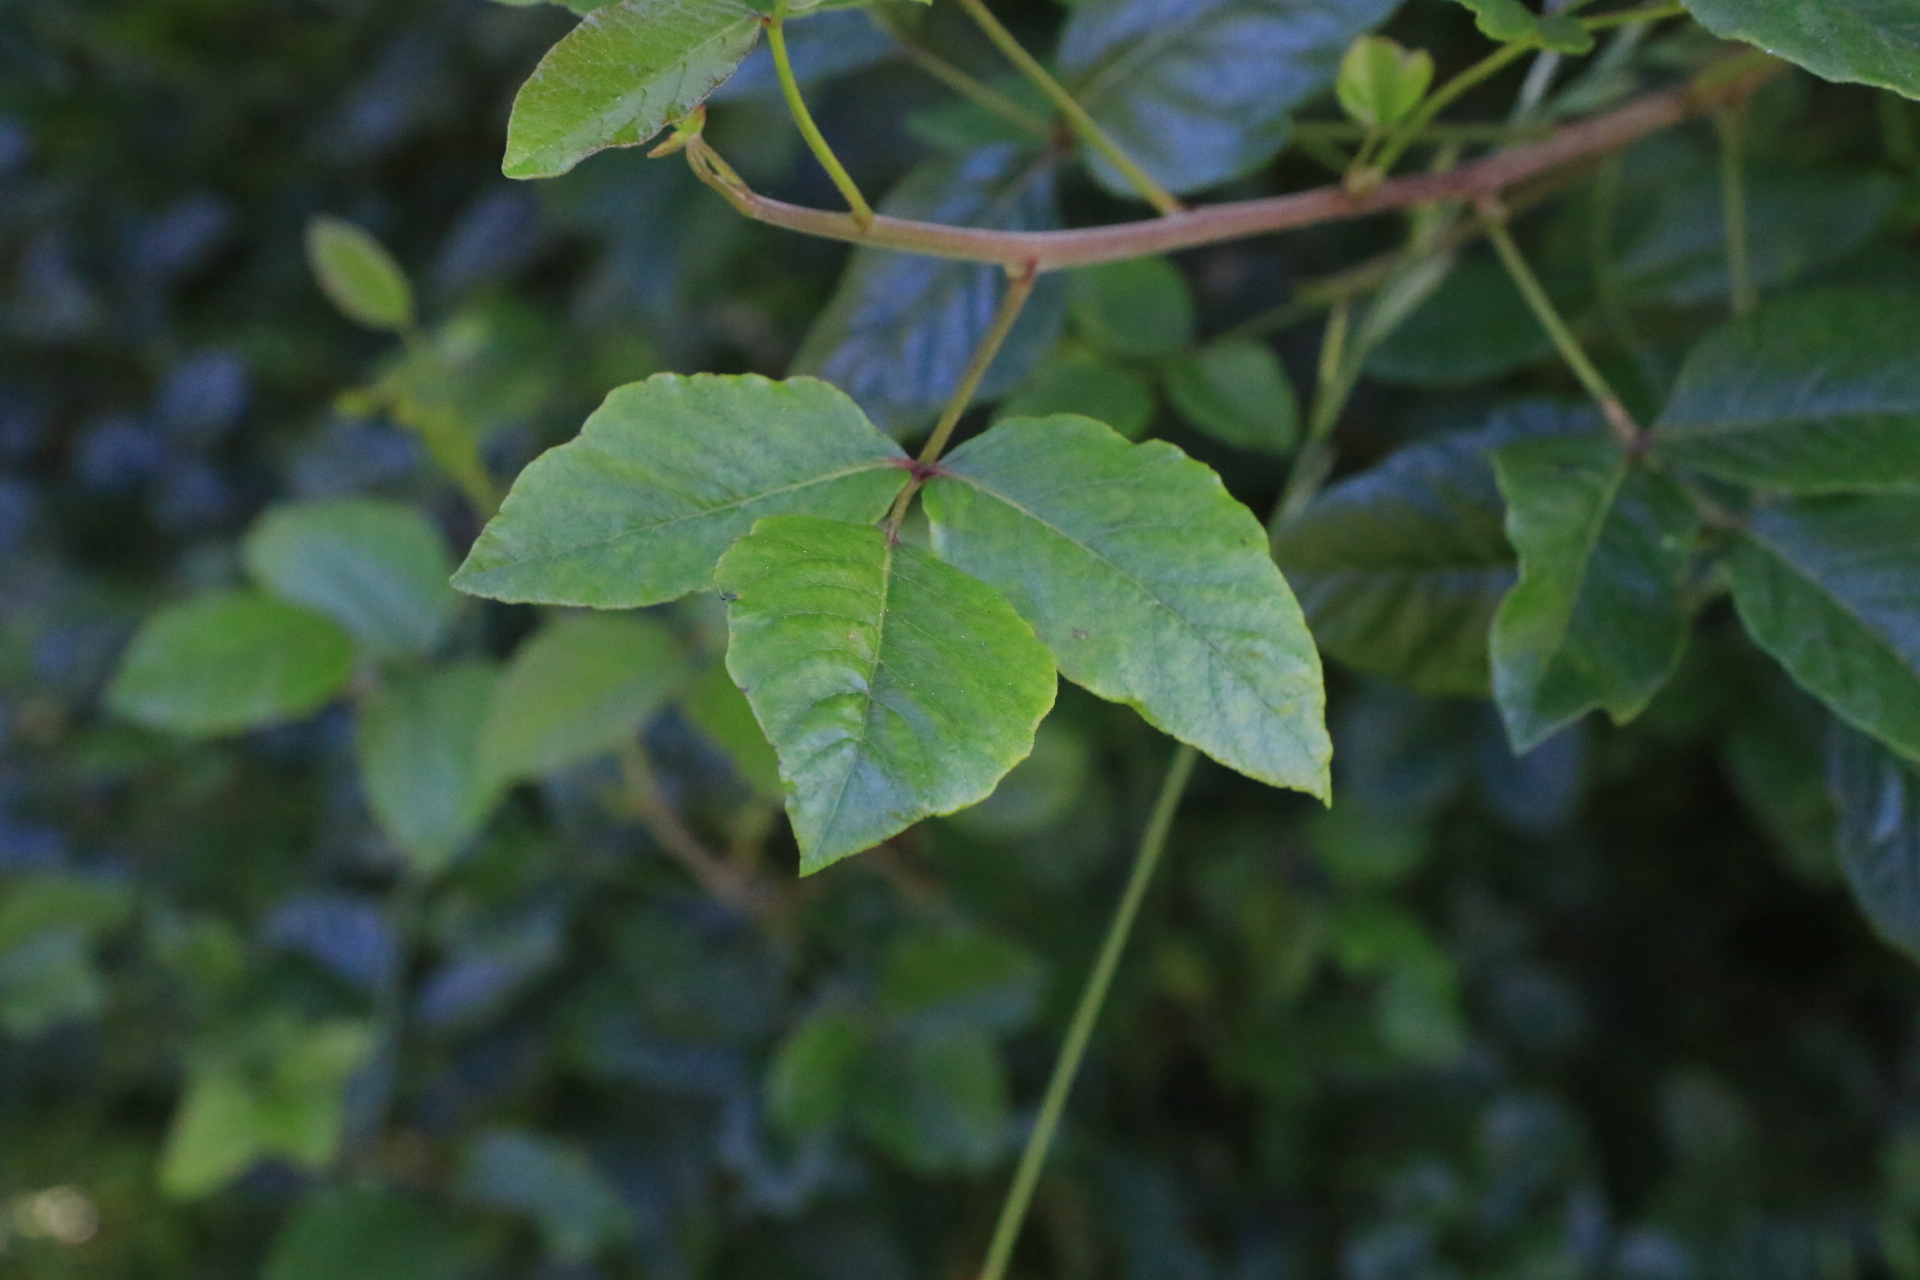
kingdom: Plantae
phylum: Tracheophyta
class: Magnoliopsida
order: Sapindales
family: Anacardiaceae
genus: Toxicodendron
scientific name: Toxicodendron diversilobum
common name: Pacific poison-oak
